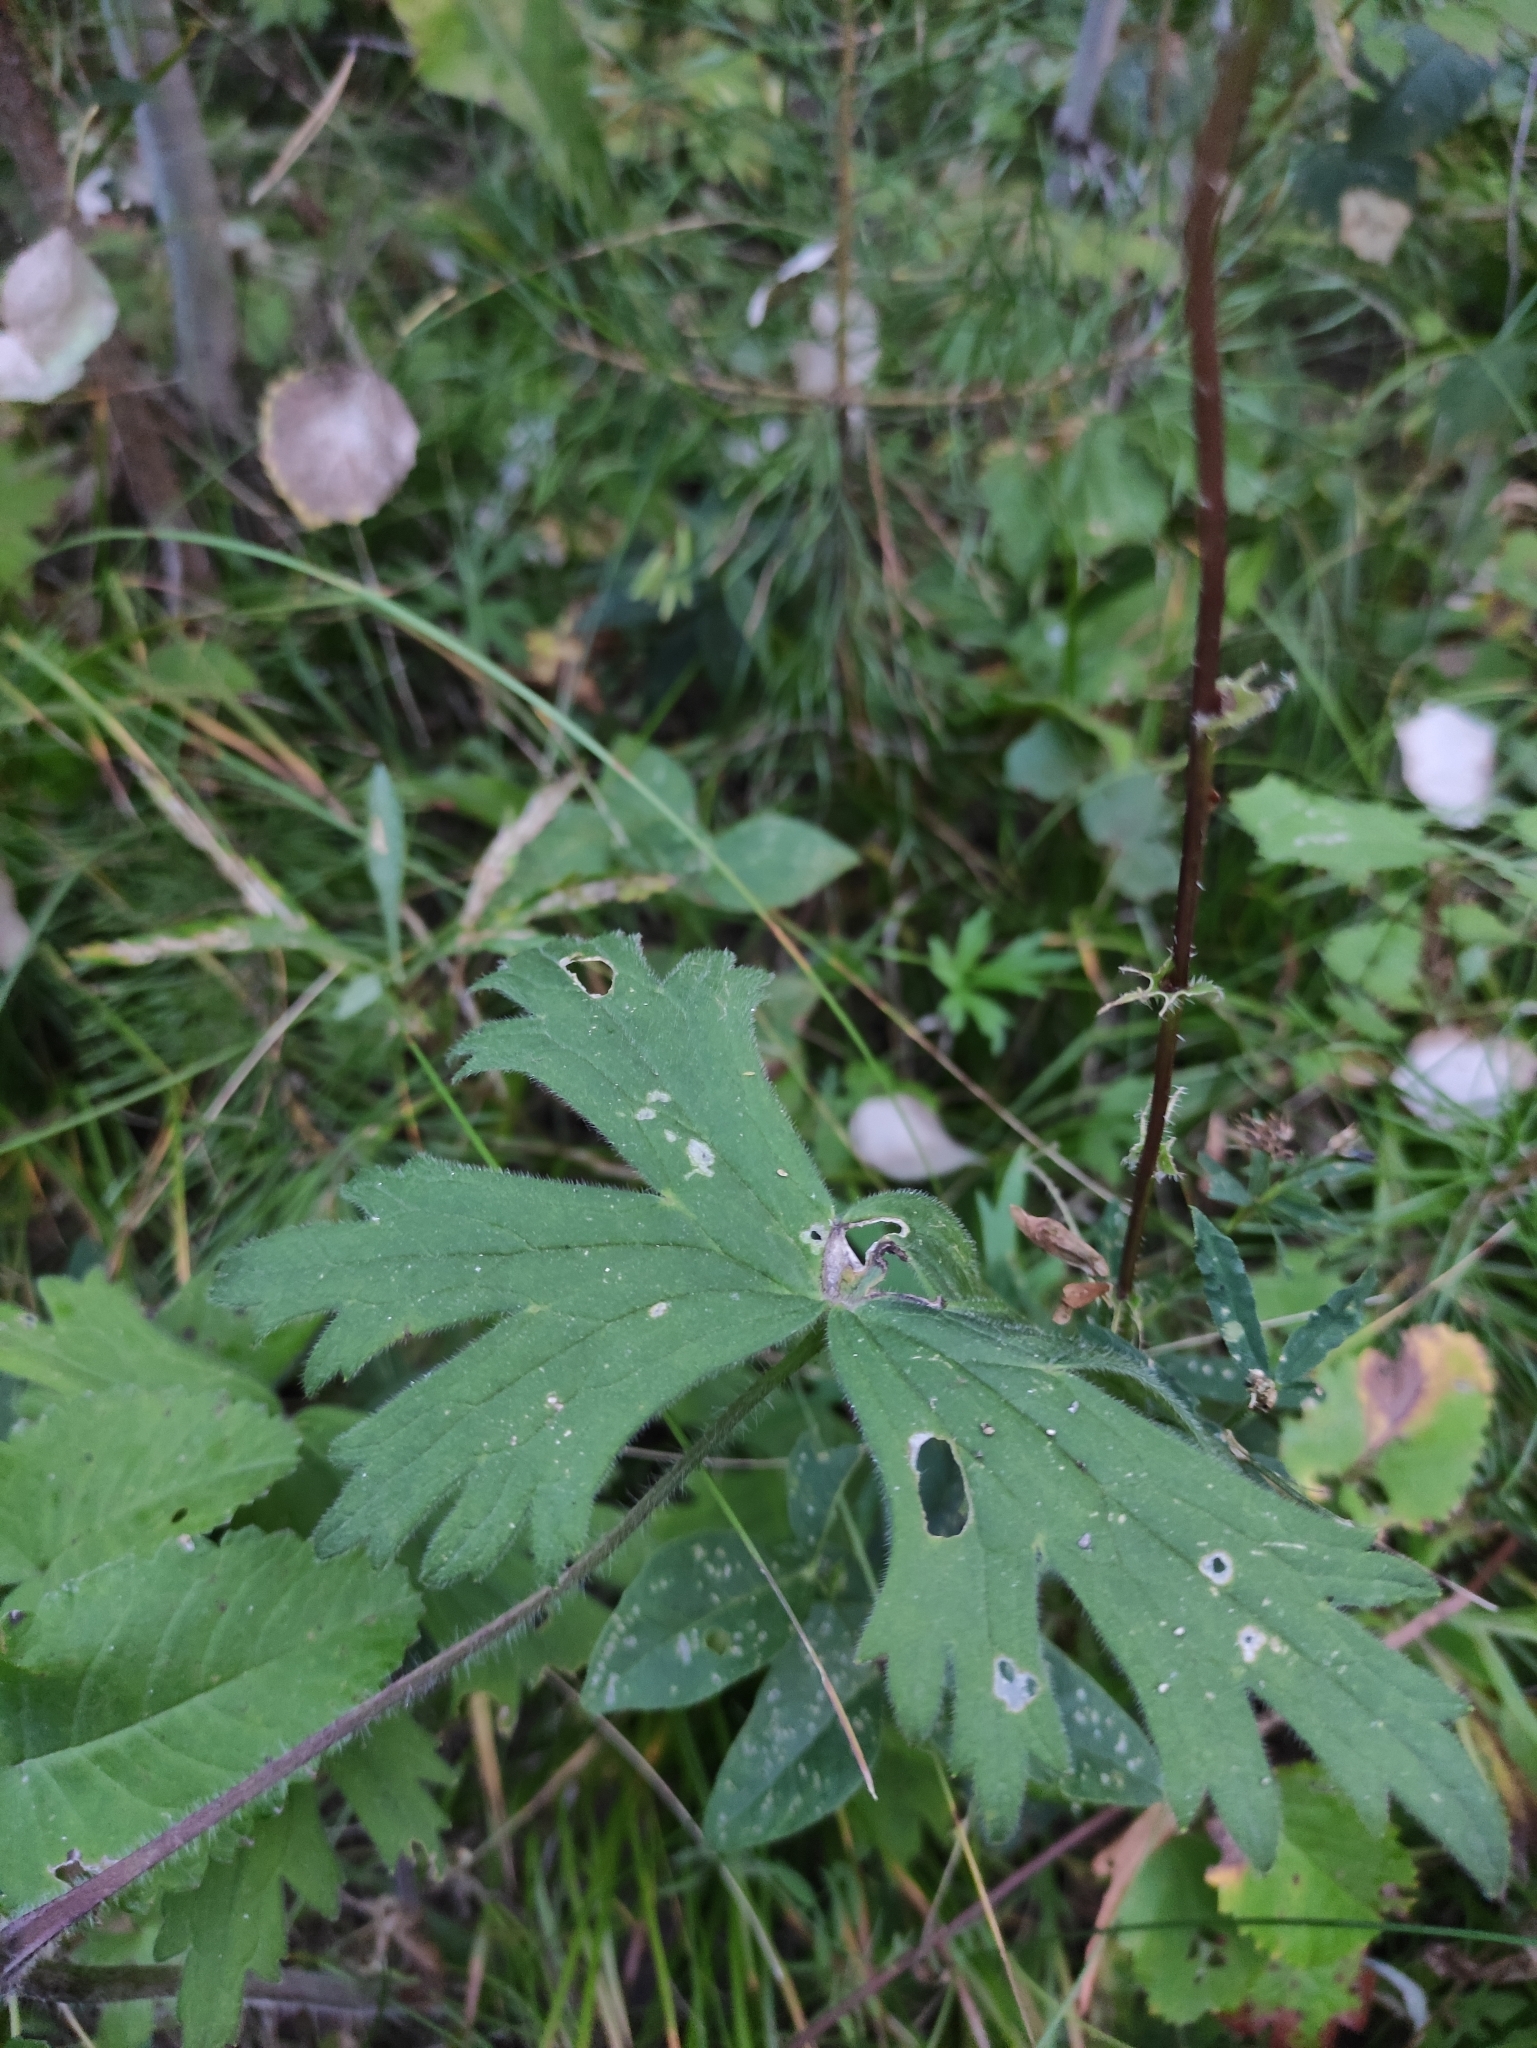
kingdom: Plantae
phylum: Tracheophyta
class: Magnoliopsida
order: Ranunculales
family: Ranunculaceae
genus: Delphinium
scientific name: Delphinium crassifolium
